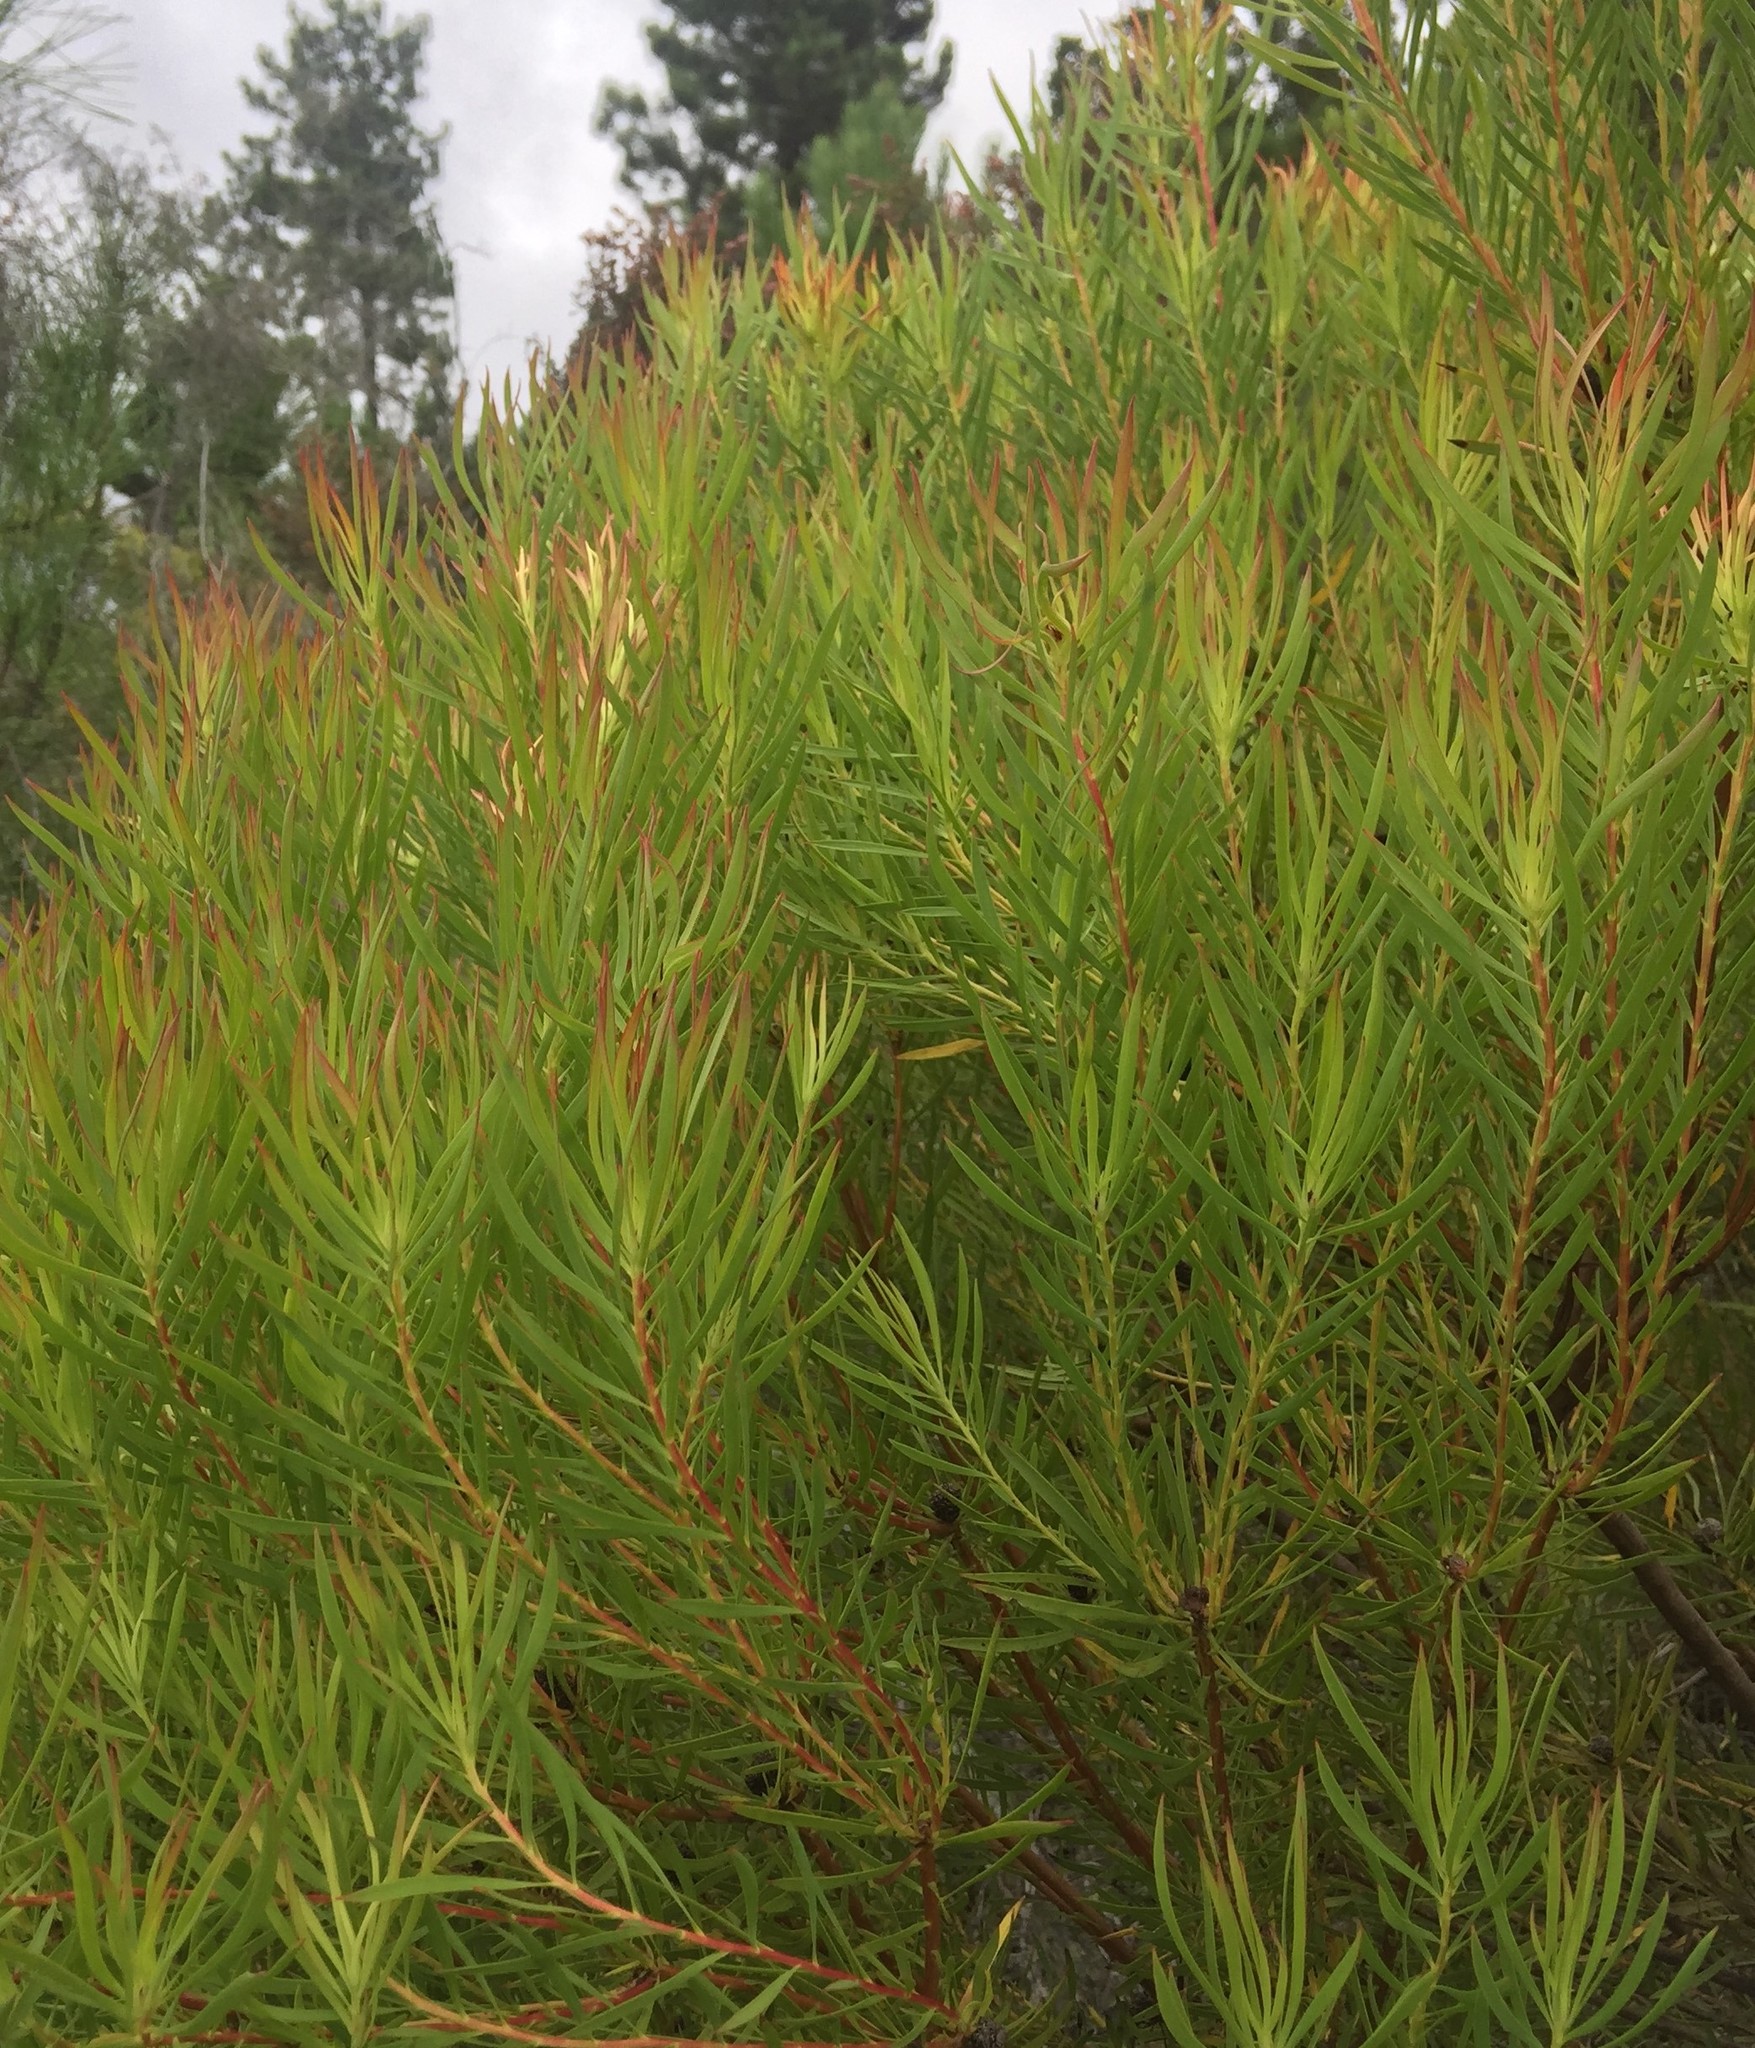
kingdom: Plantae
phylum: Tracheophyta
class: Magnoliopsida
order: Proteales
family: Proteaceae
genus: Leucadendron
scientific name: Leucadendron salignum
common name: Common sunshine conebush
